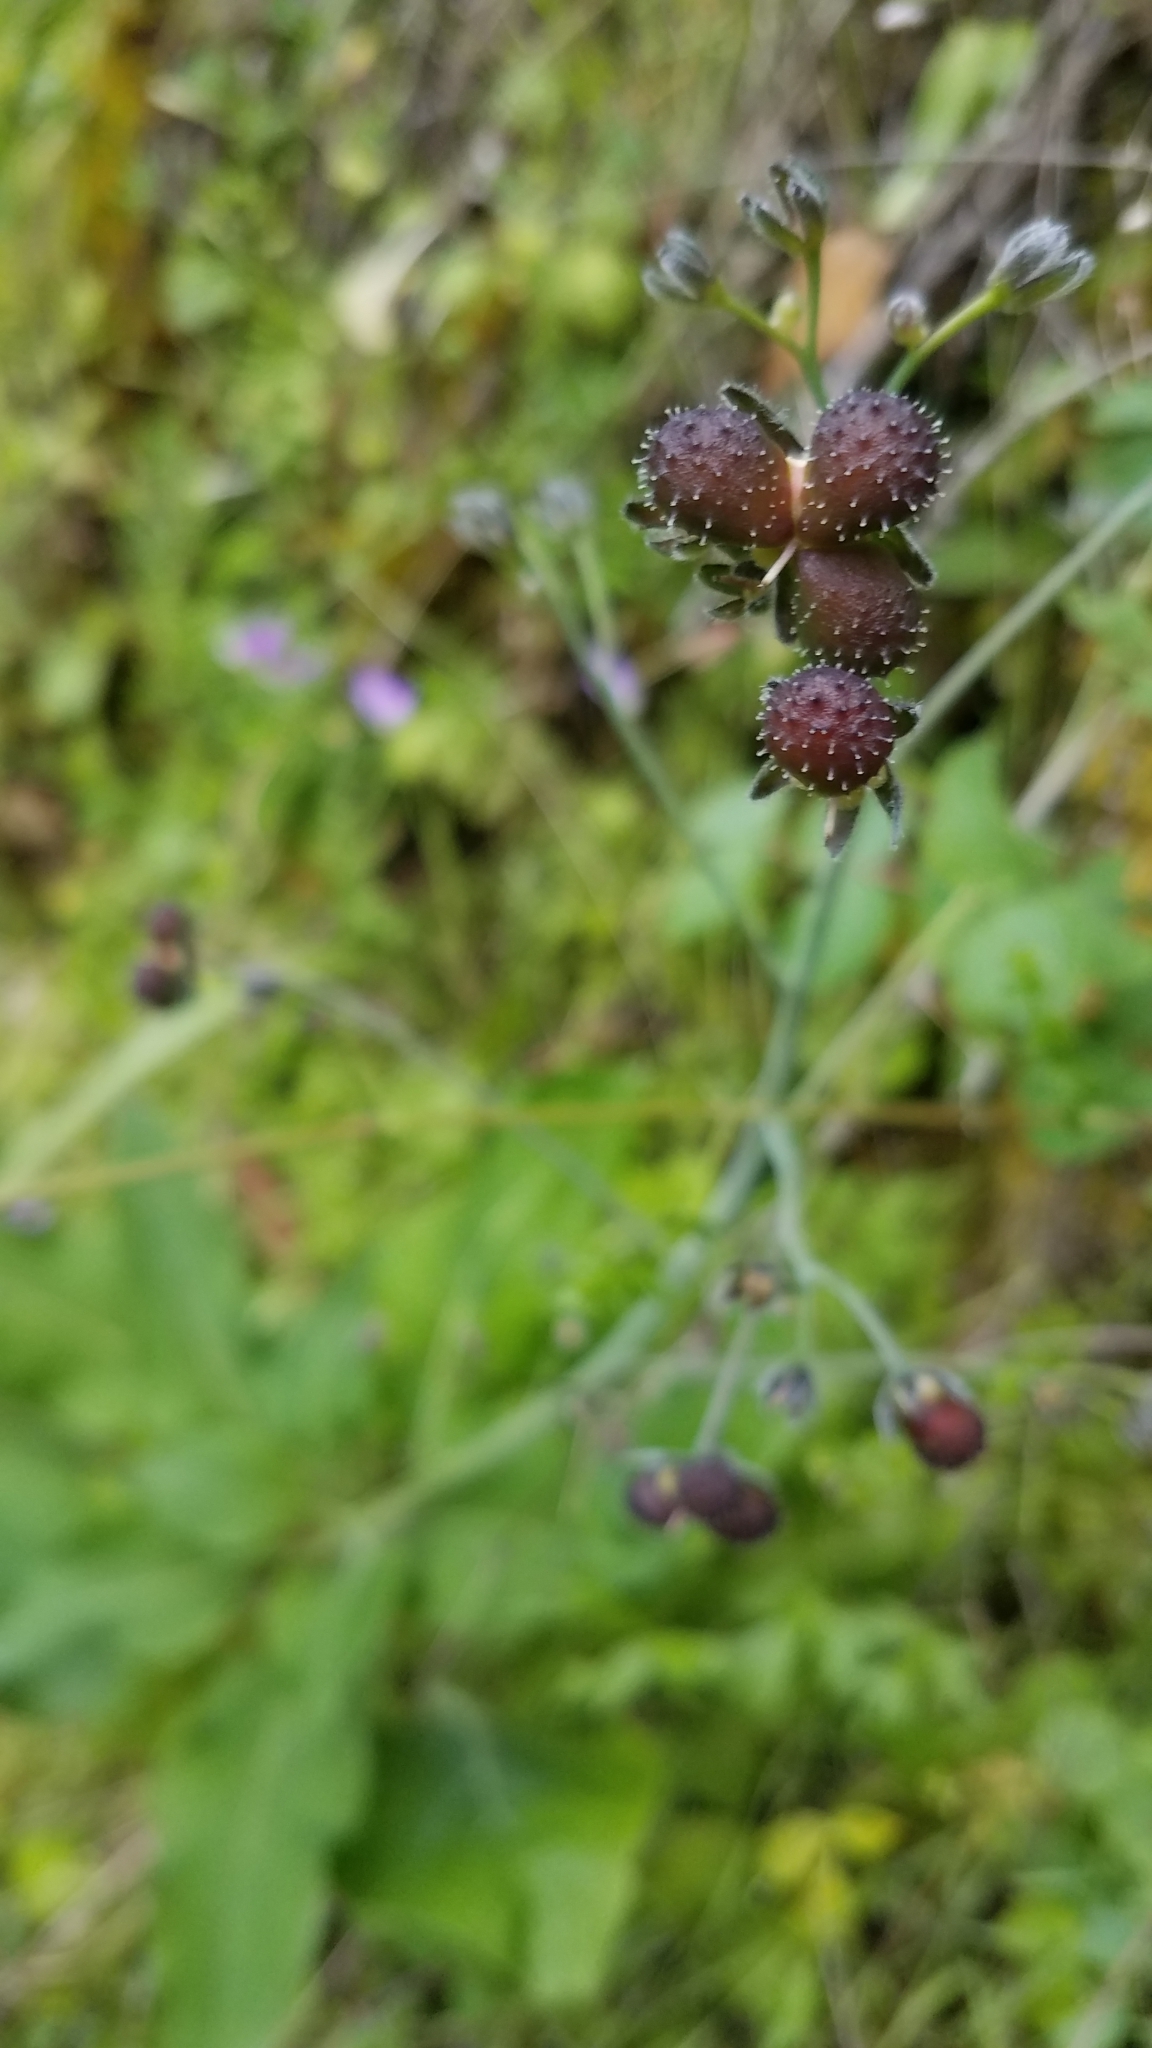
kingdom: Plantae
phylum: Tracheophyta
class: Magnoliopsida
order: Boraginales
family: Boraginaceae
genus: Adelinia
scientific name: Adelinia grande
